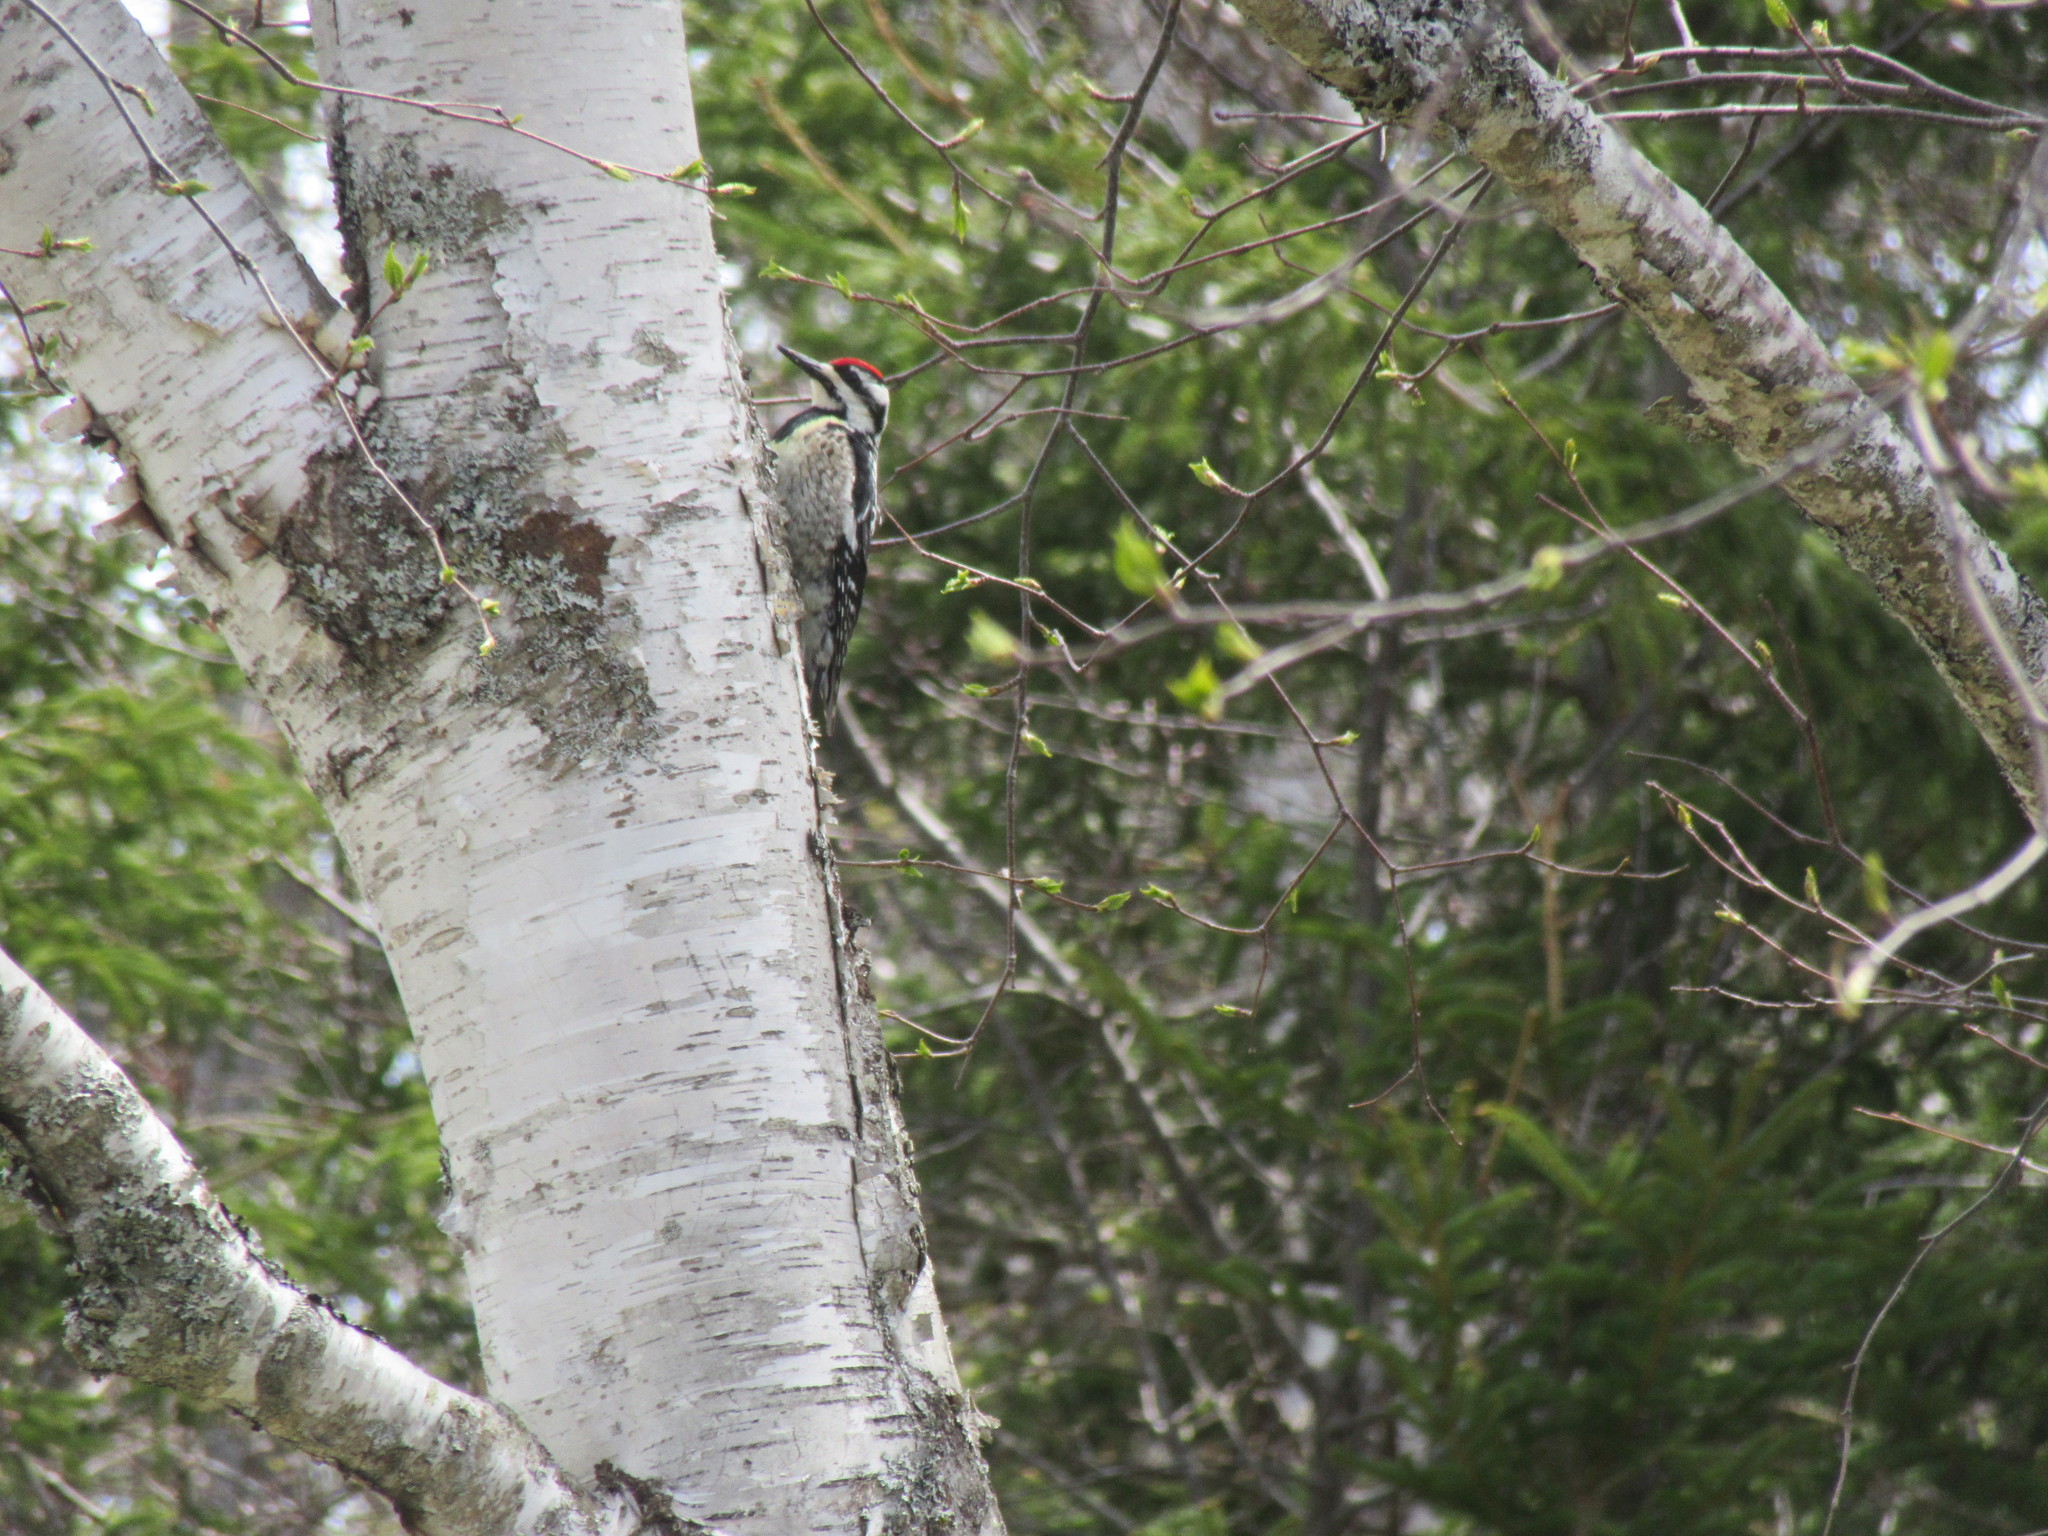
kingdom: Animalia
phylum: Chordata
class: Aves
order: Piciformes
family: Picidae
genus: Sphyrapicus
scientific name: Sphyrapicus varius
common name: Yellow-bellied sapsucker
